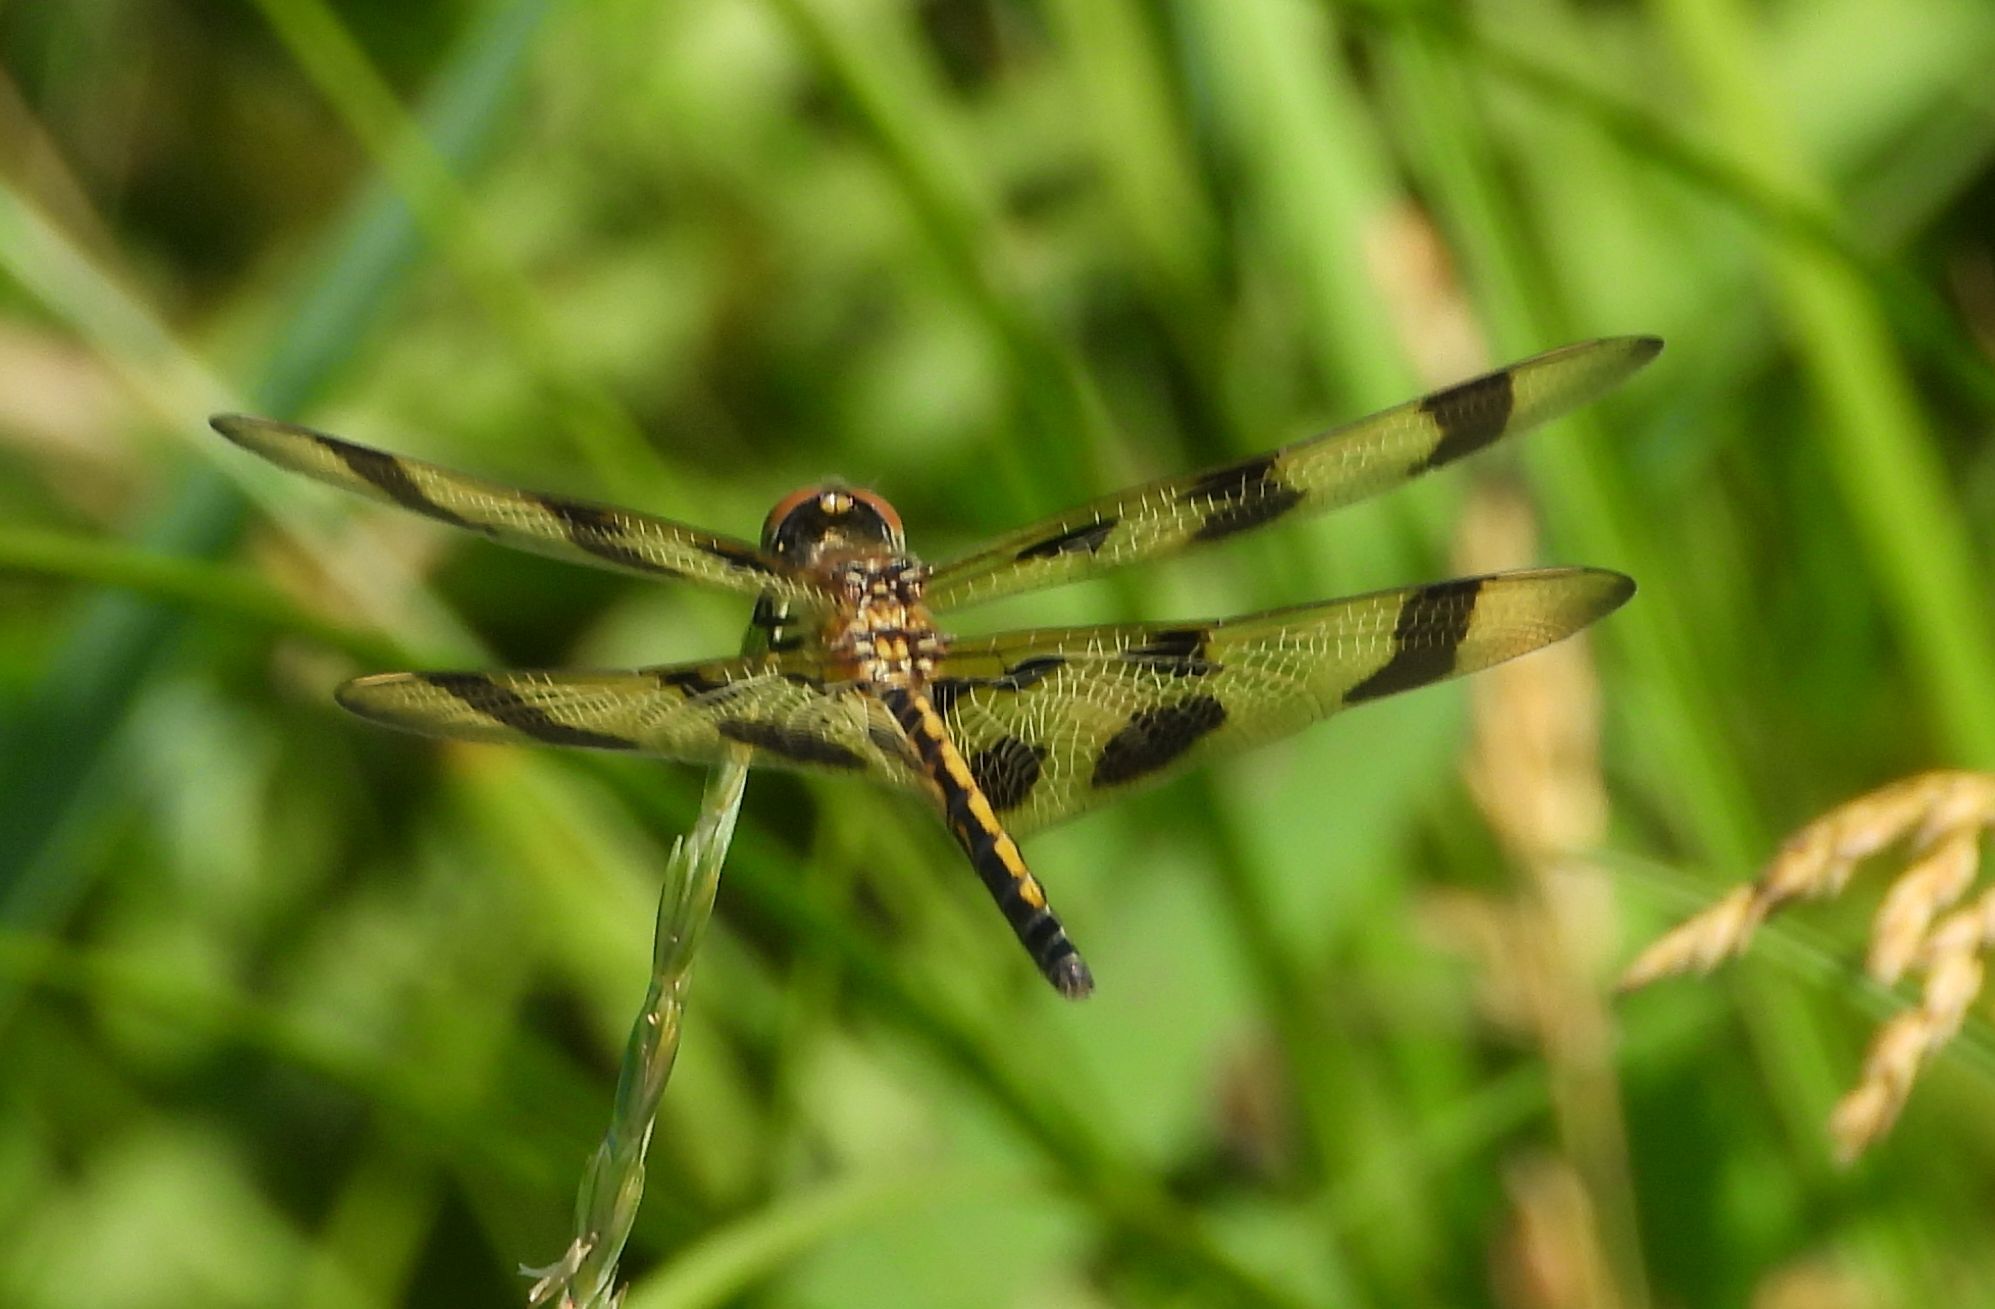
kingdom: Animalia
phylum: Arthropoda
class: Insecta
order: Odonata
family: Libellulidae
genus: Celithemis
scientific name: Celithemis eponina
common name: Halloween pennant
